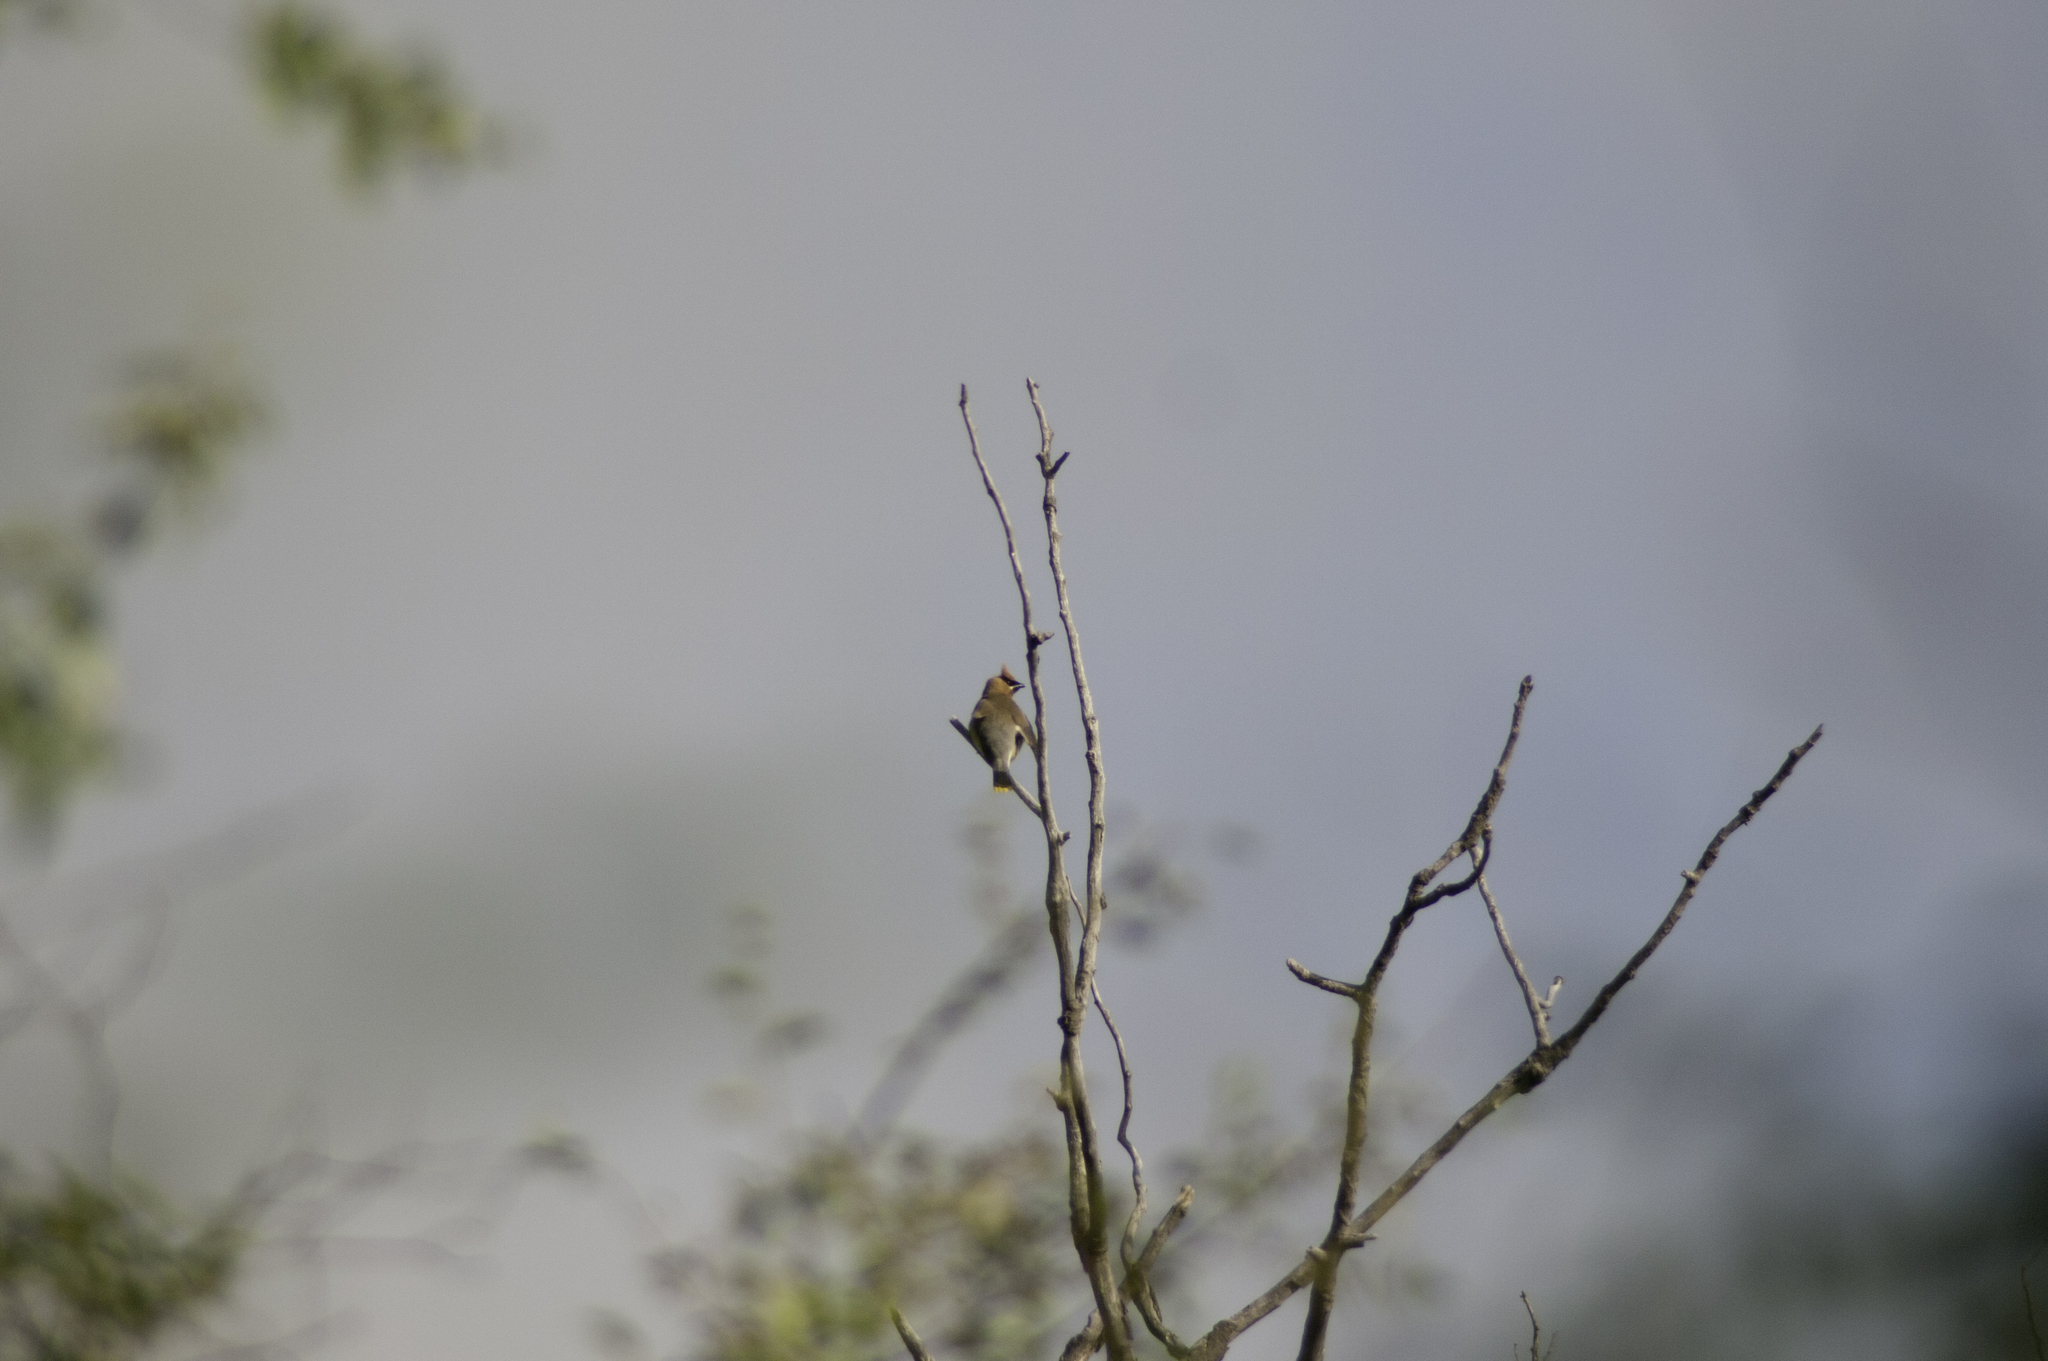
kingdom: Animalia
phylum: Chordata
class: Aves
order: Passeriformes
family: Bombycillidae
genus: Bombycilla
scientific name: Bombycilla cedrorum
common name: Cedar waxwing
